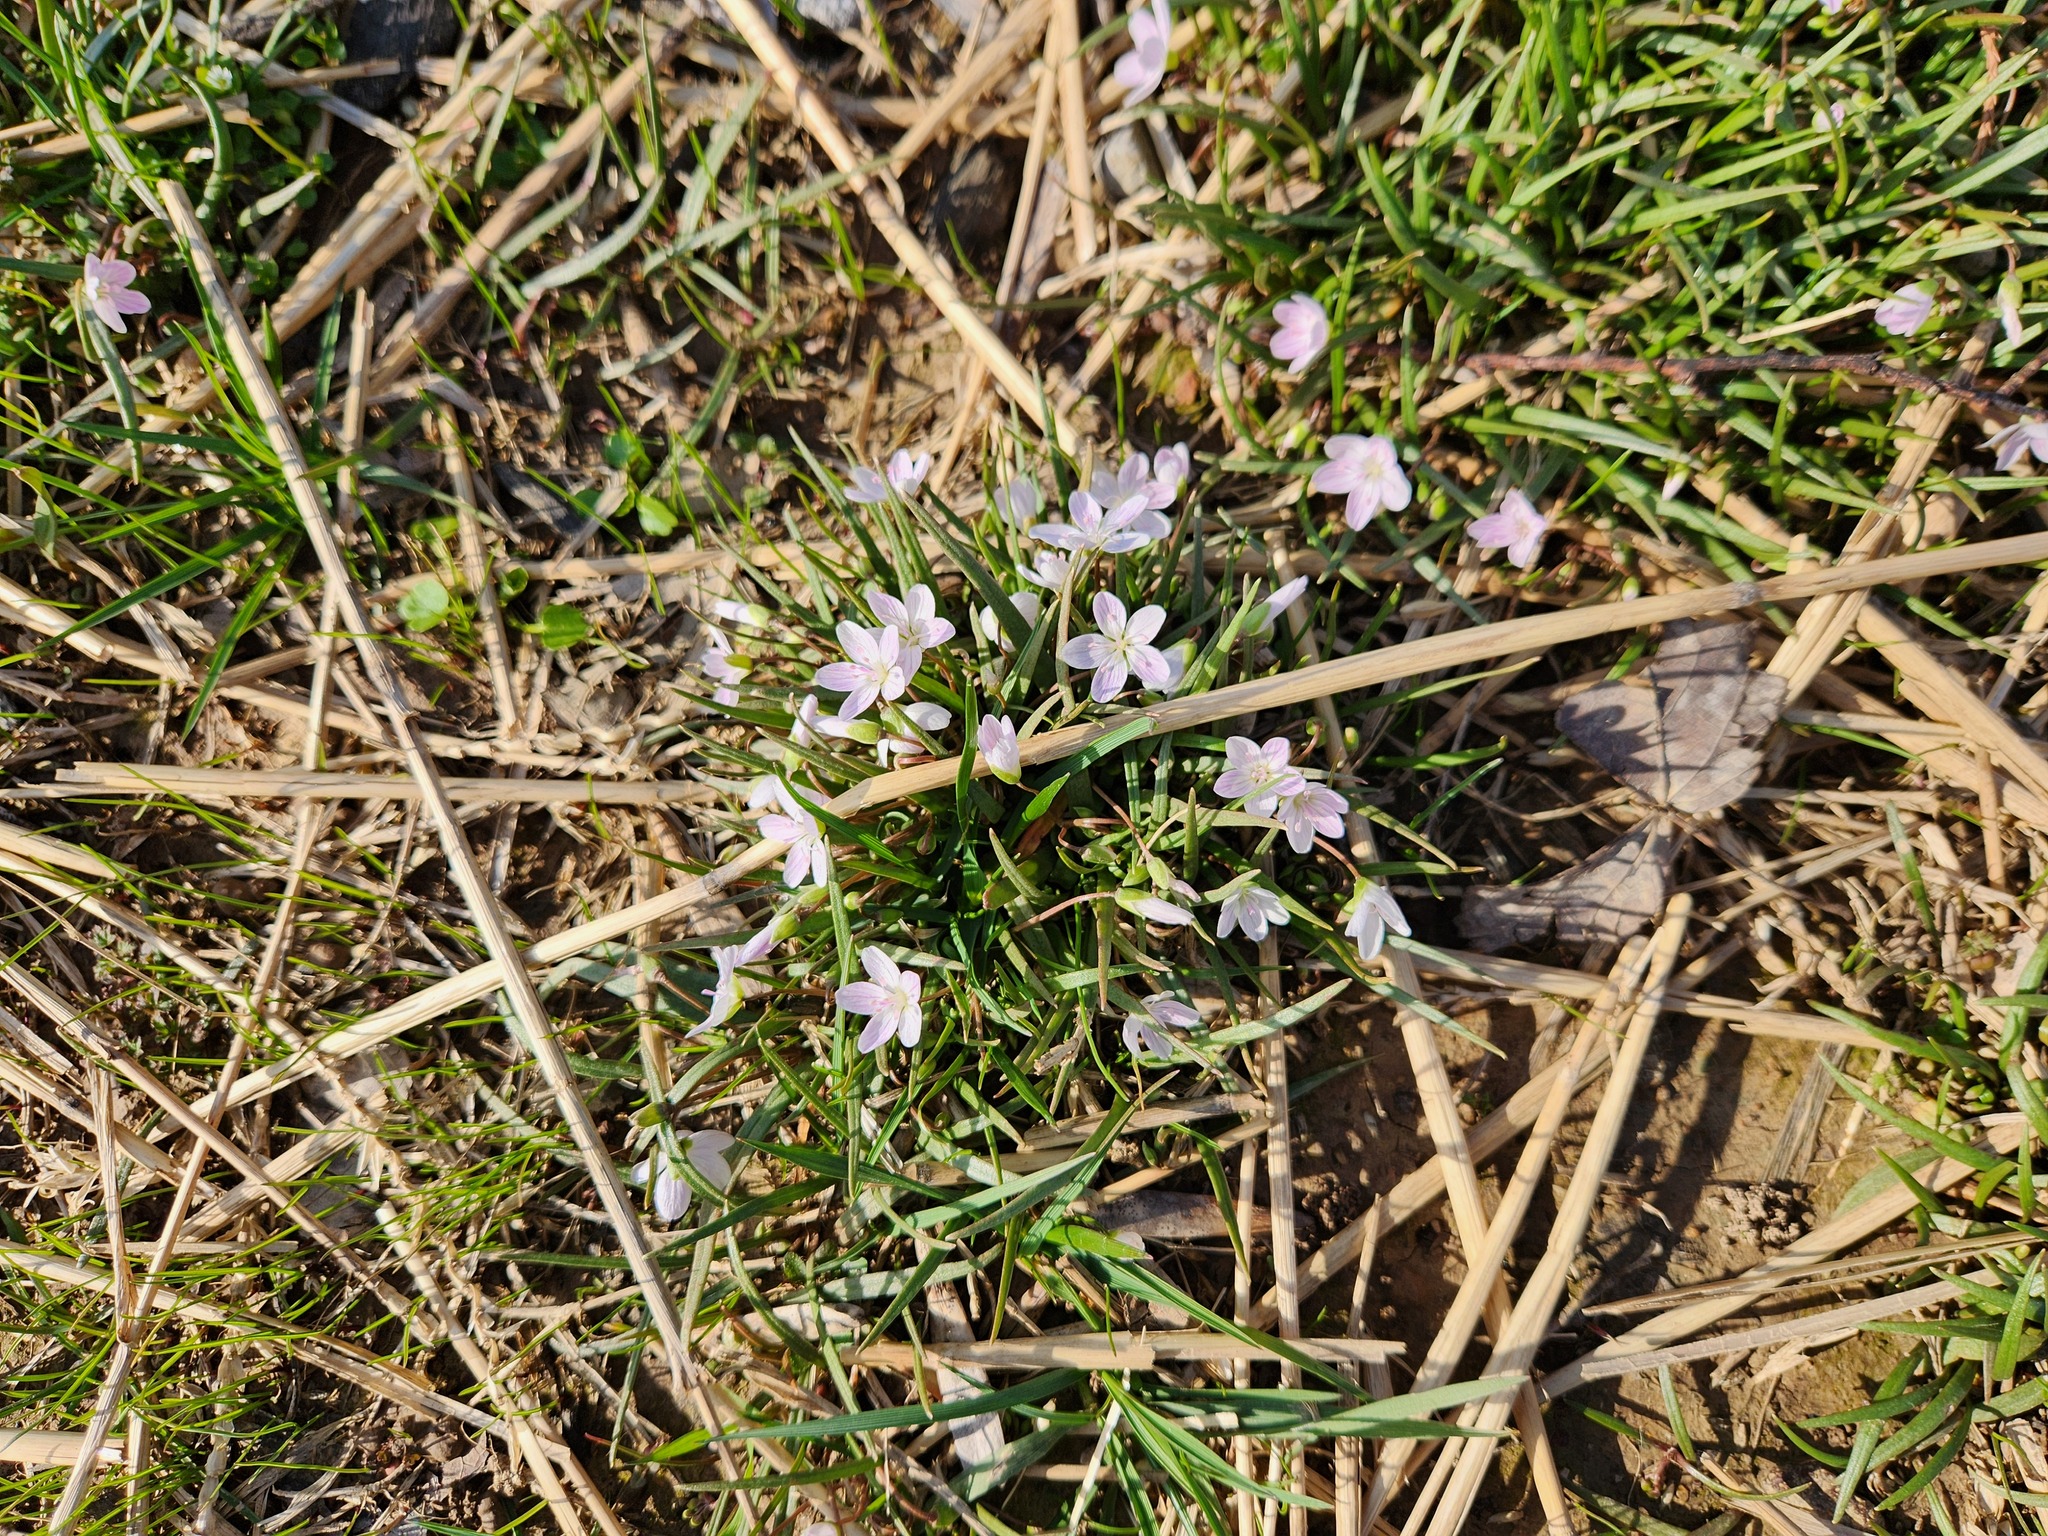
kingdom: Plantae
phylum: Tracheophyta
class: Magnoliopsida
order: Caryophyllales
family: Montiaceae
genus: Claytonia
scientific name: Claytonia virginica
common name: Virginia springbeauty
